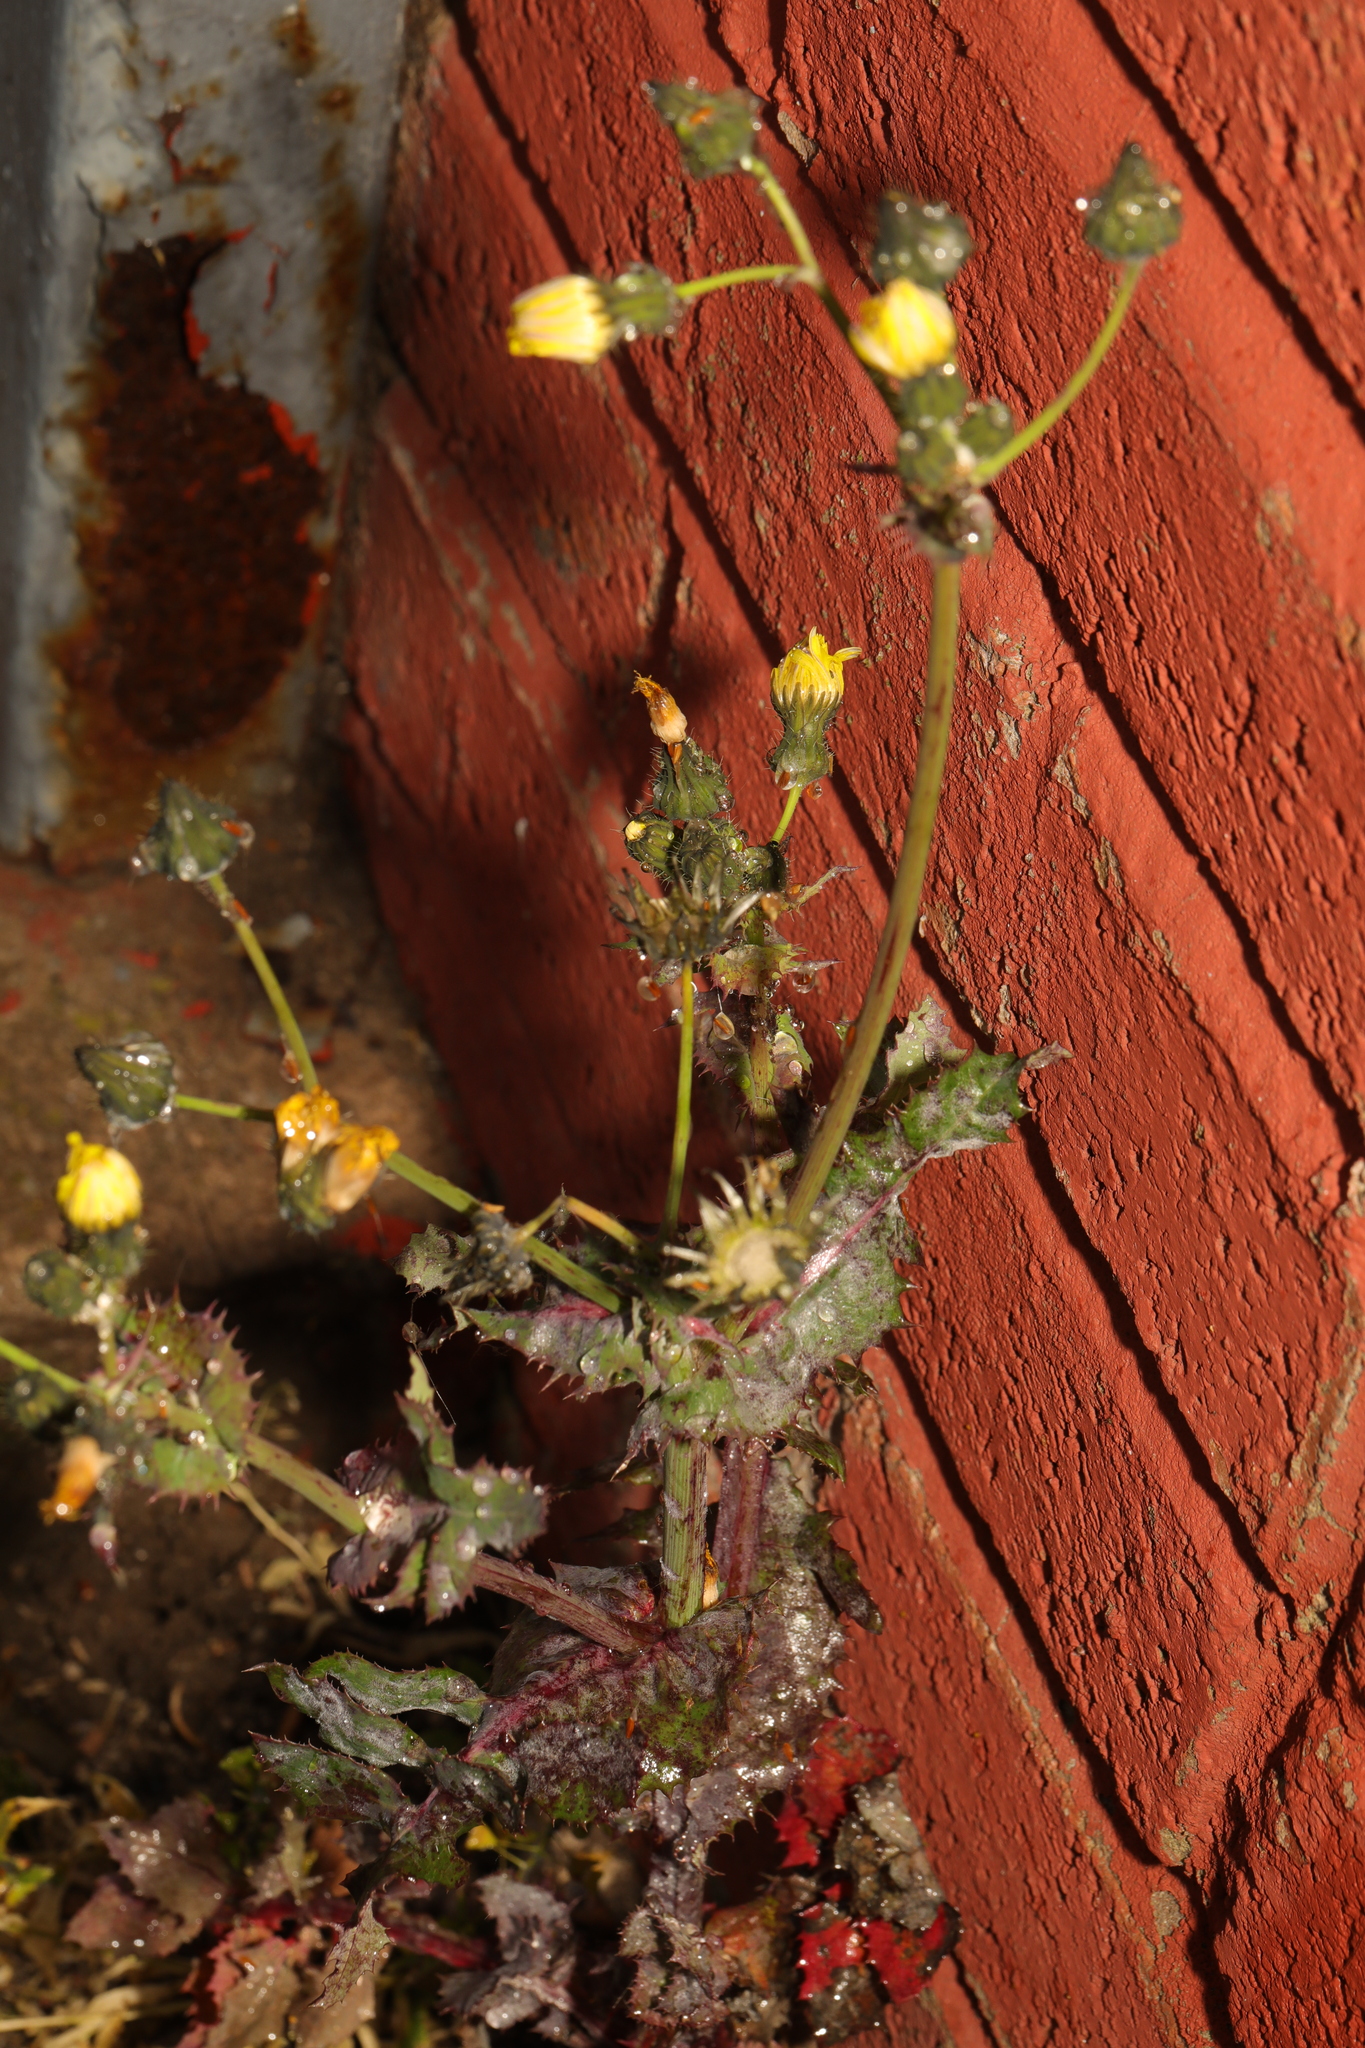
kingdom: Plantae
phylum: Tracheophyta
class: Magnoliopsida
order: Asterales
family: Asteraceae
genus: Sonchus
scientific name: Sonchus asper
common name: Prickly sow-thistle
